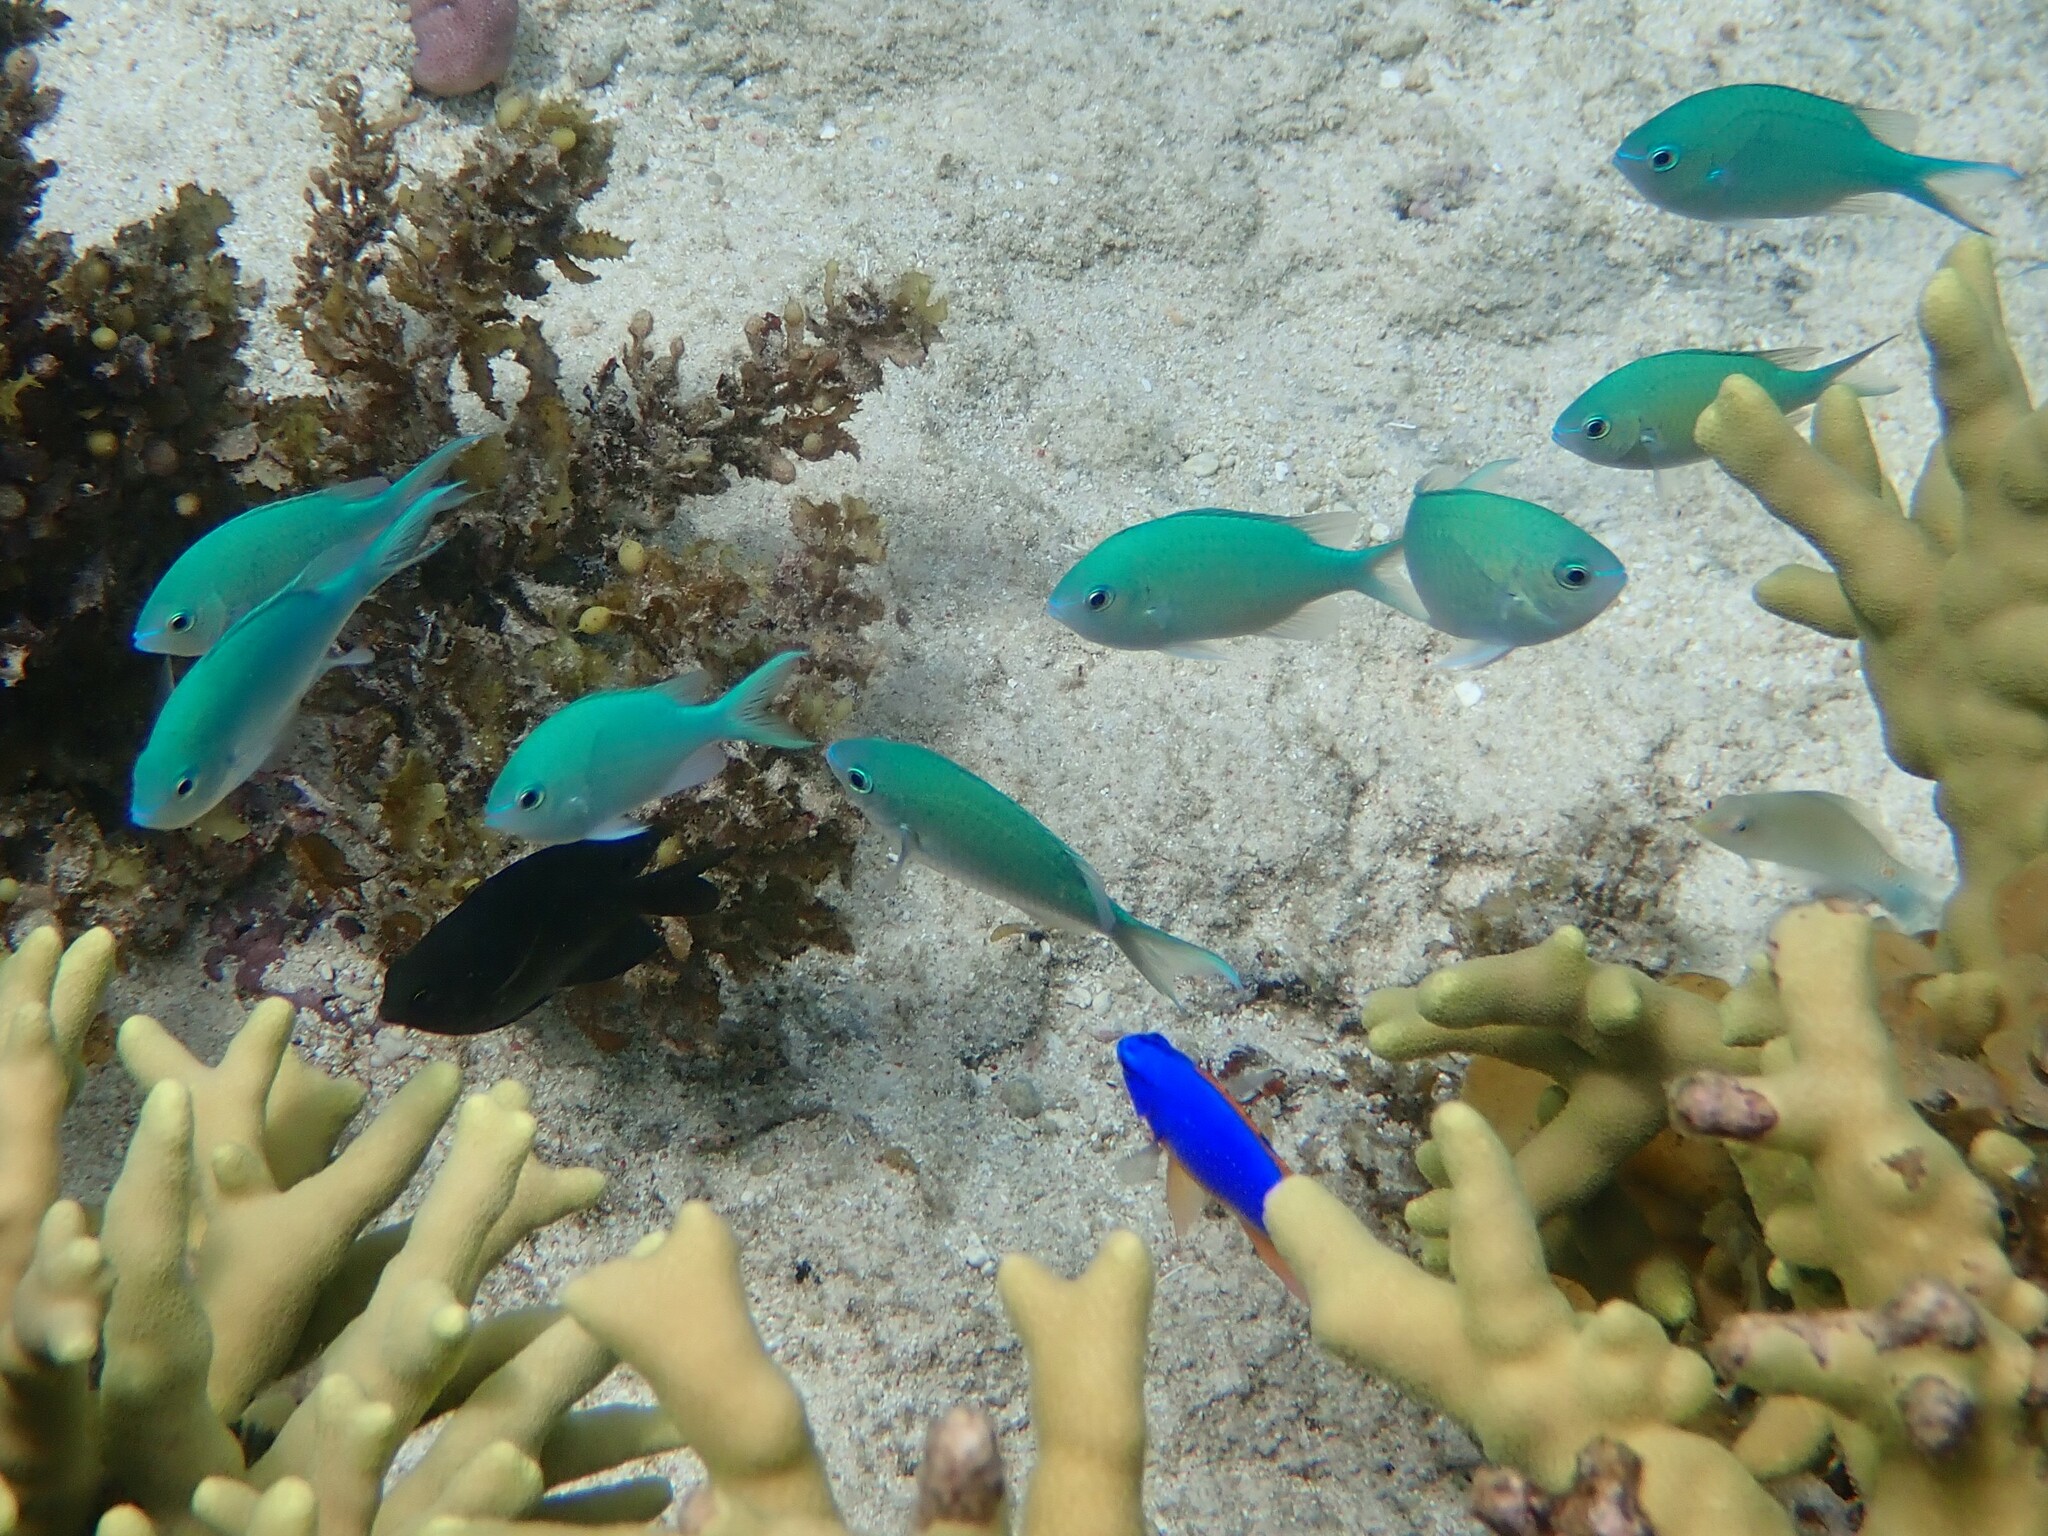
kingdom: Animalia
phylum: Chordata
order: Perciformes
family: Pomacentridae
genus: Chromis
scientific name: Chromis viridis
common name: Blue-green chromis
